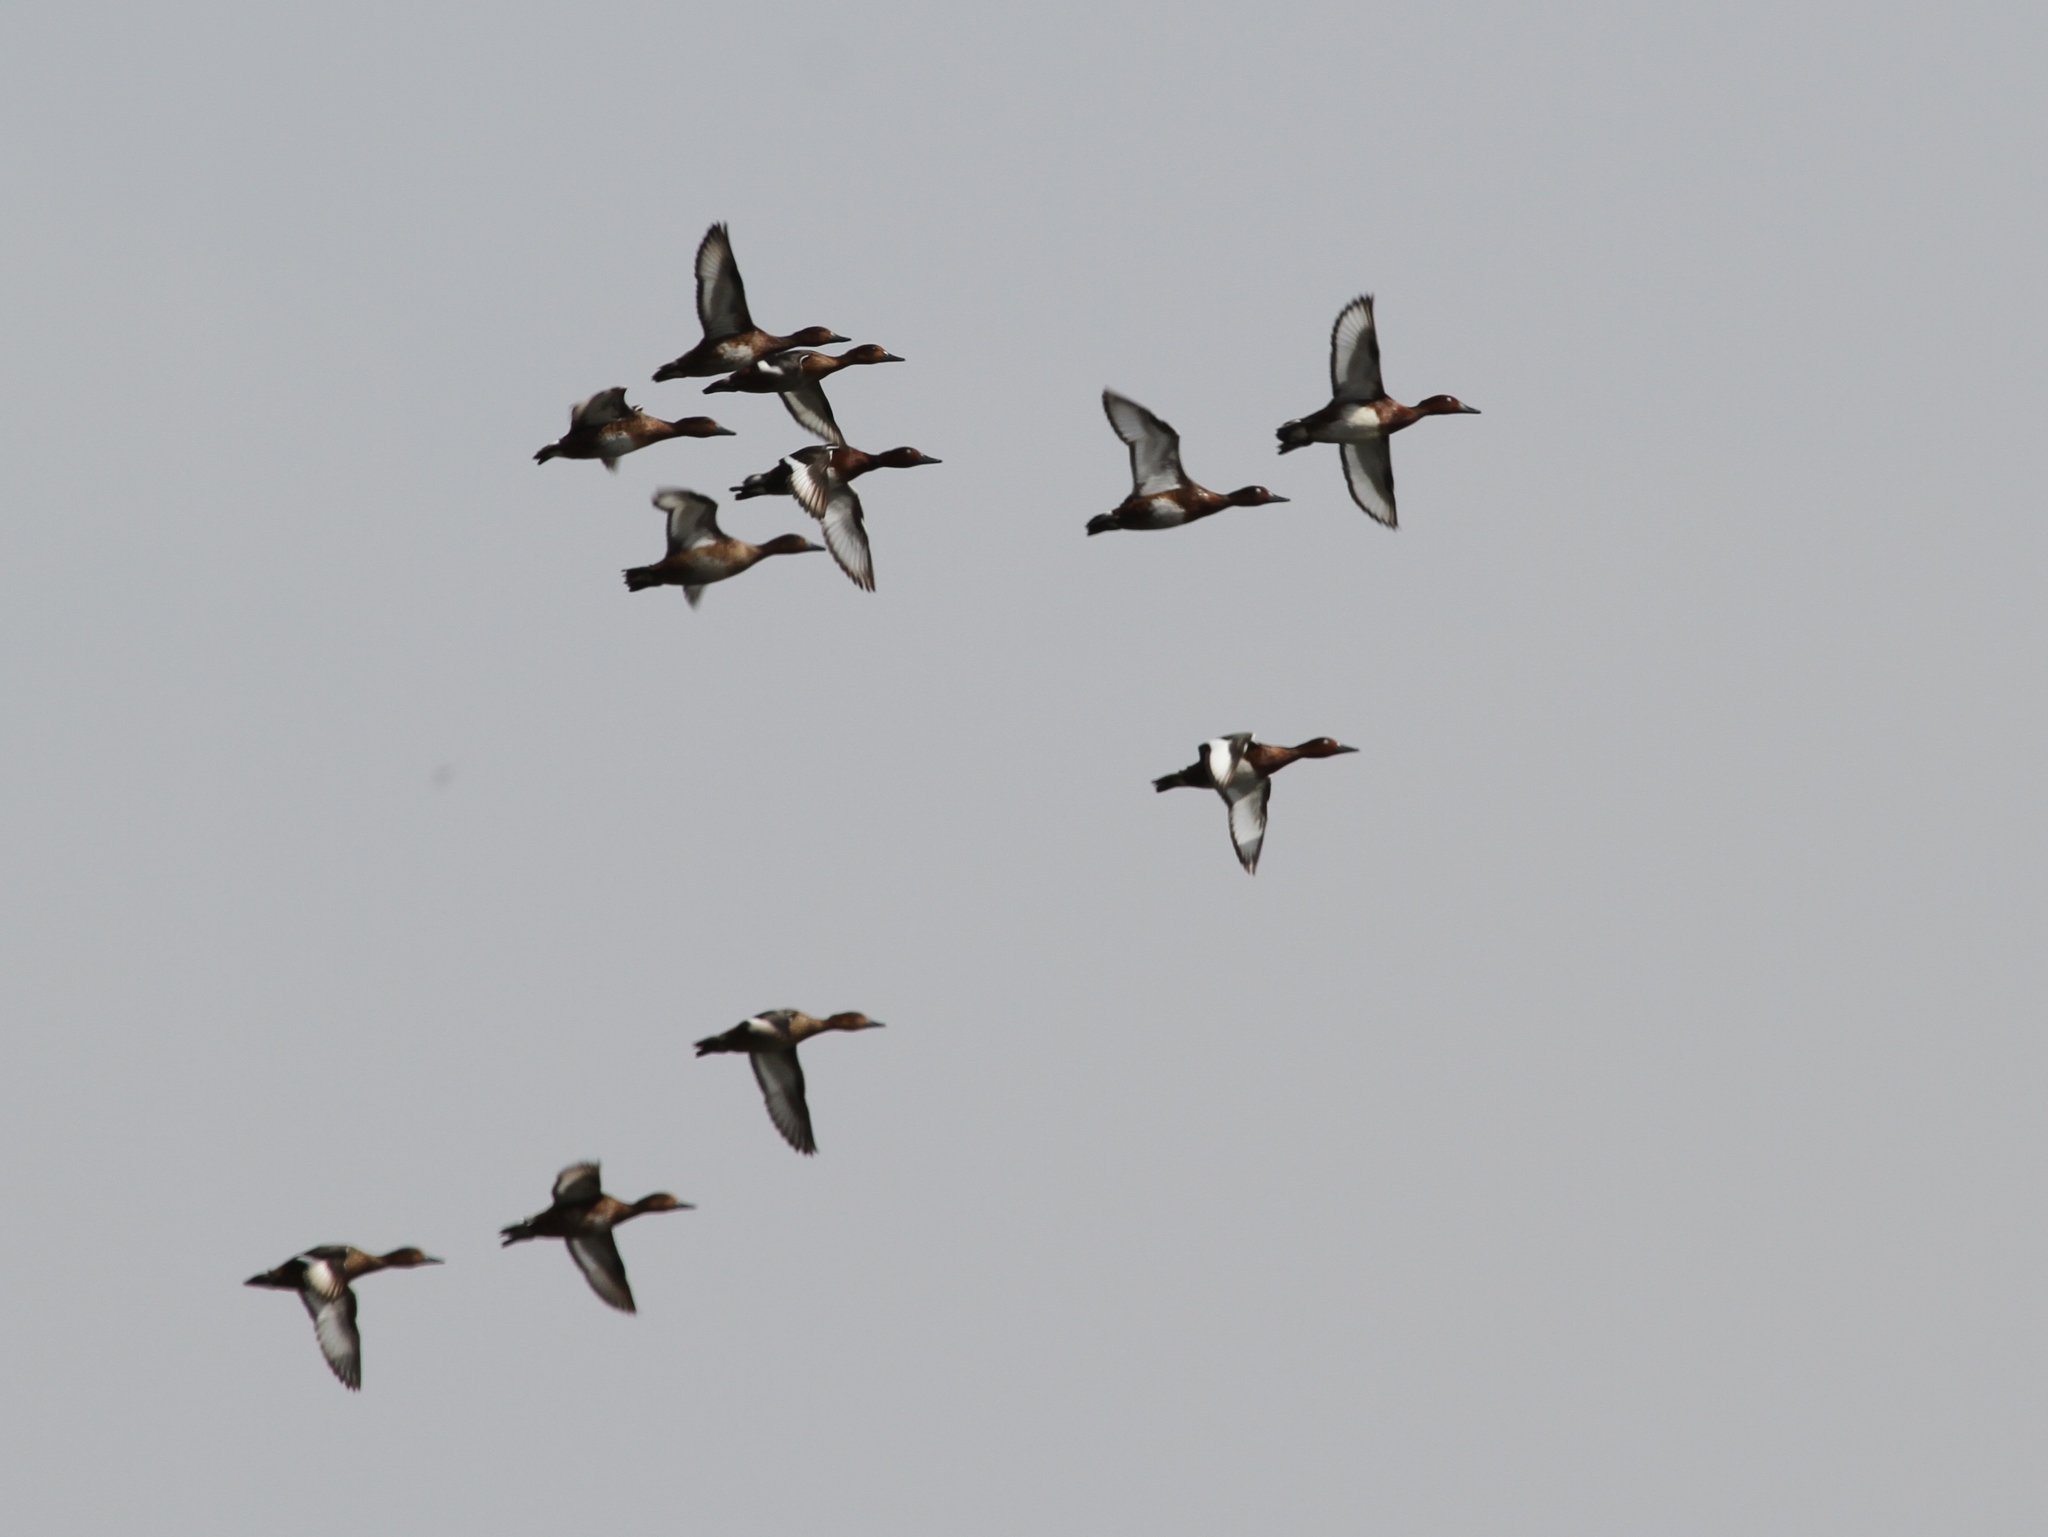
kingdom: Animalia
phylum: Chordata
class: Aves
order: Anseriformes
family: Anatidae
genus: Aythya
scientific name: Aythya nyroca
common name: Ferruginous duck
